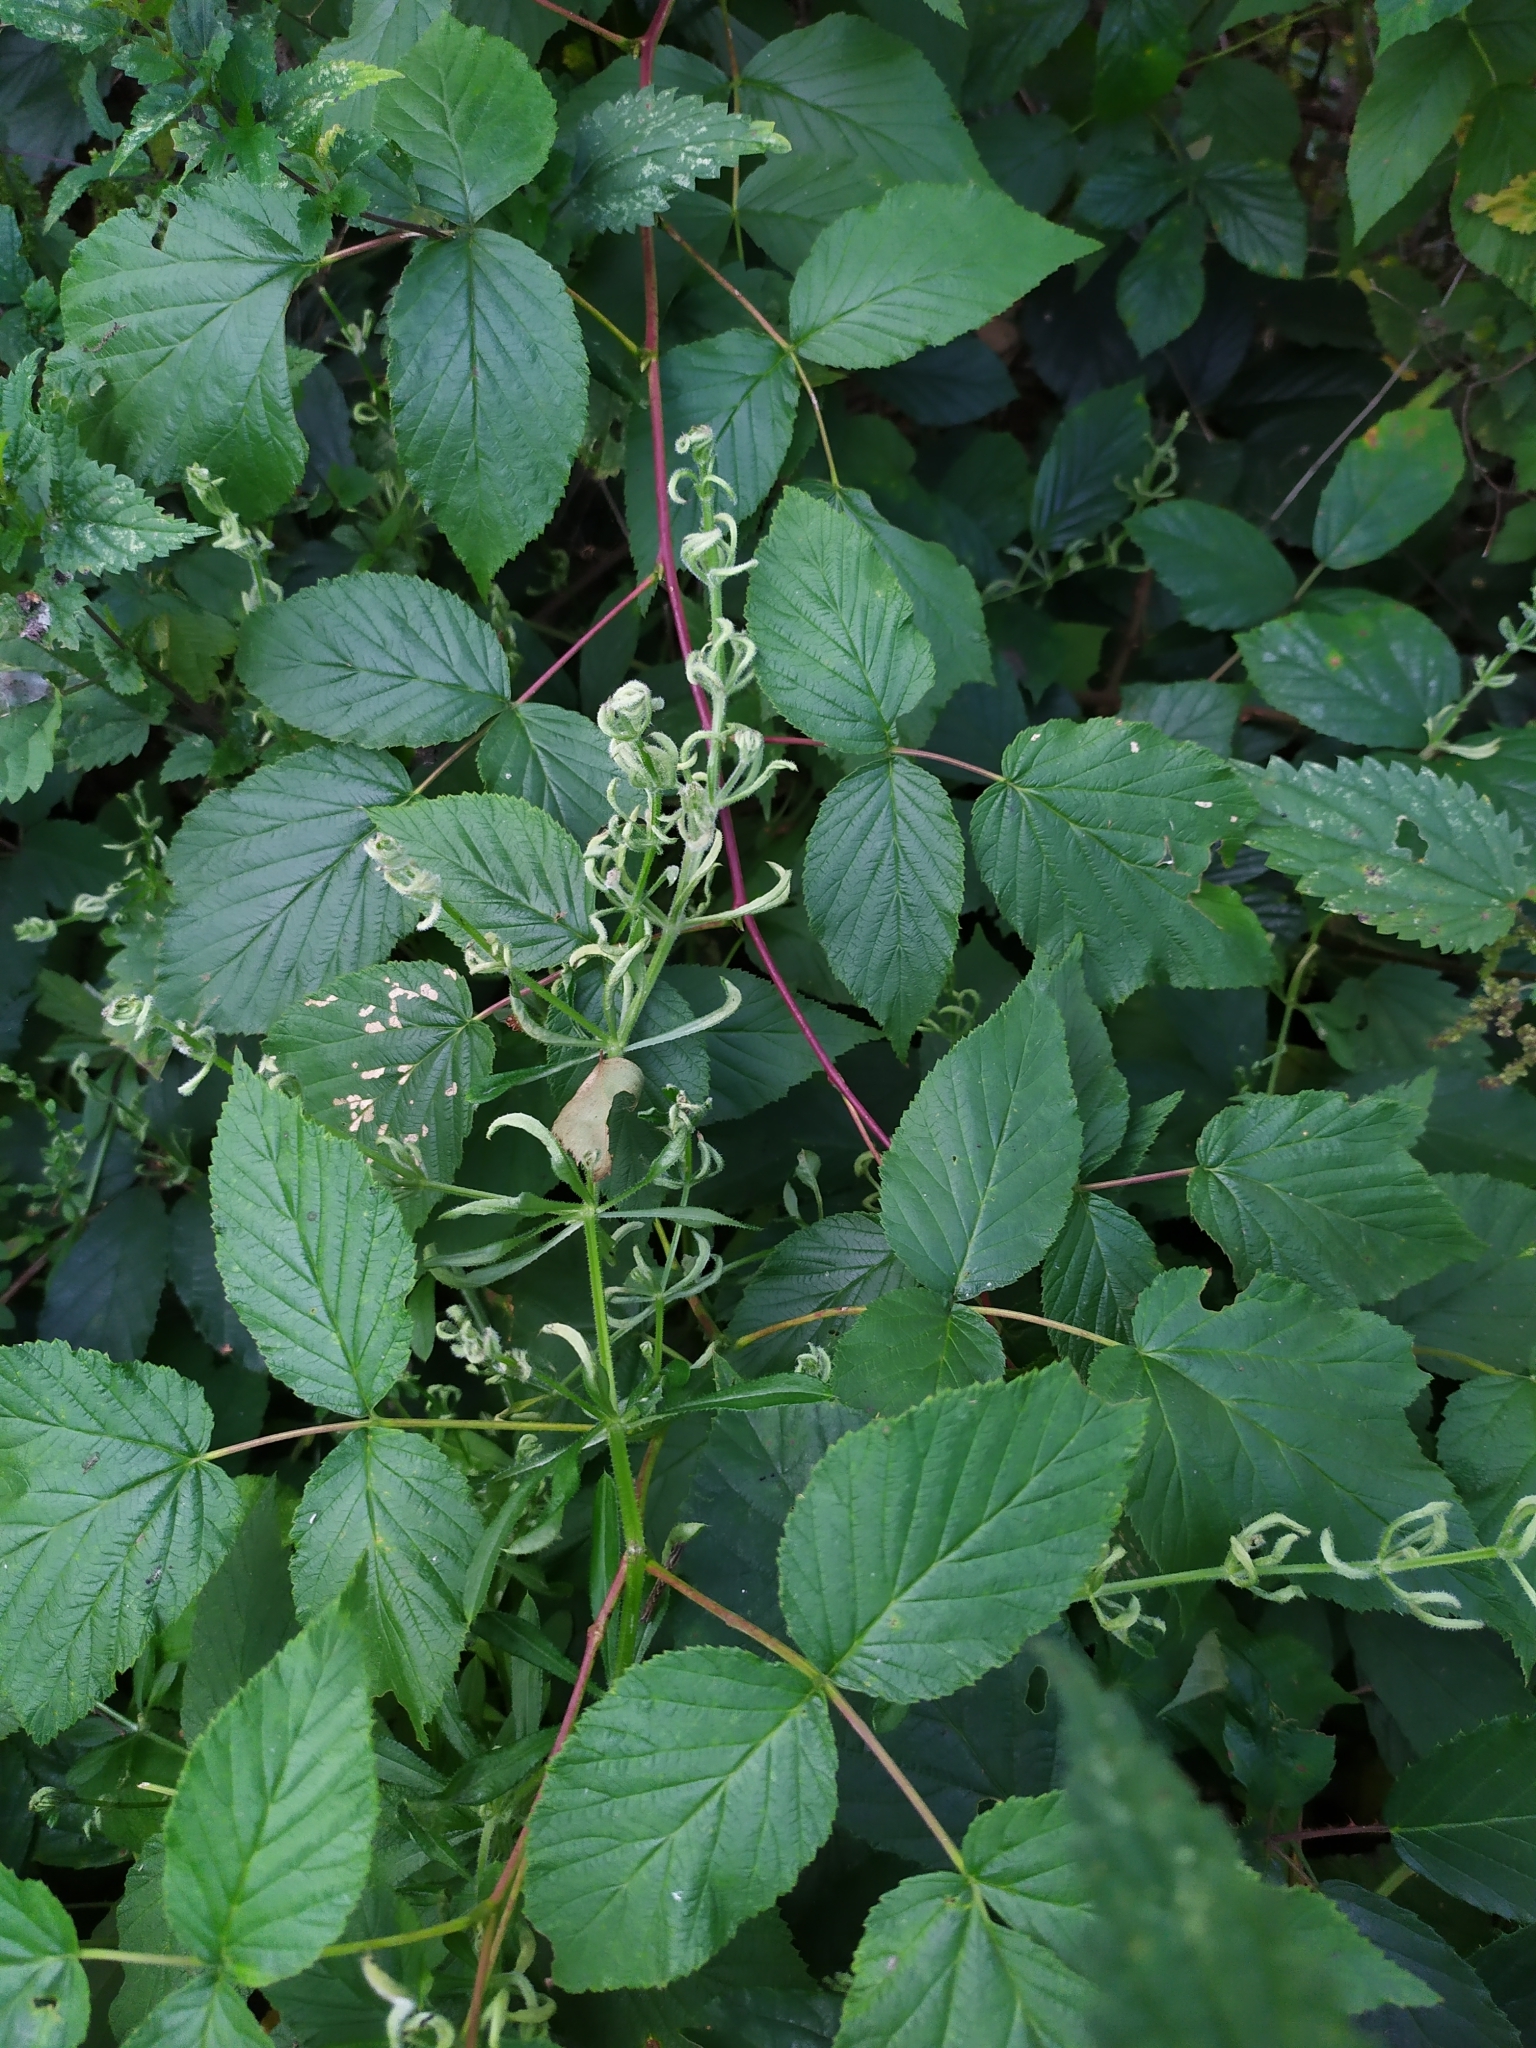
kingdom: Animalia
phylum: Arthropoda
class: Arachnida
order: Trombidiformes
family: Eriophyidae
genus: Cecidophyes
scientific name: Cecidophyes galii
